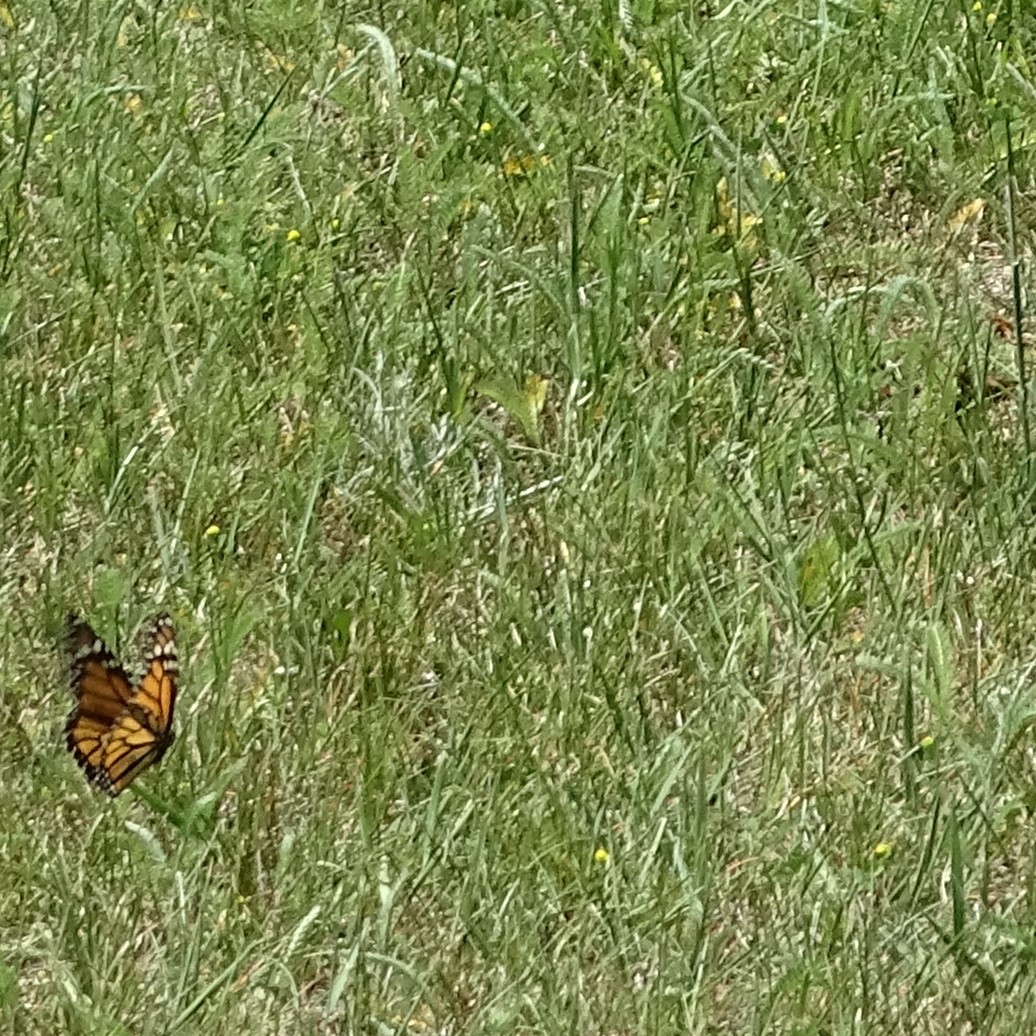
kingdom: Animalia
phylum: Arthropoda
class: Insecta
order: Lepidoptera
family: Nymphalidae
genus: Danaus
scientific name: Danaus plexippus
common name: Monarch
